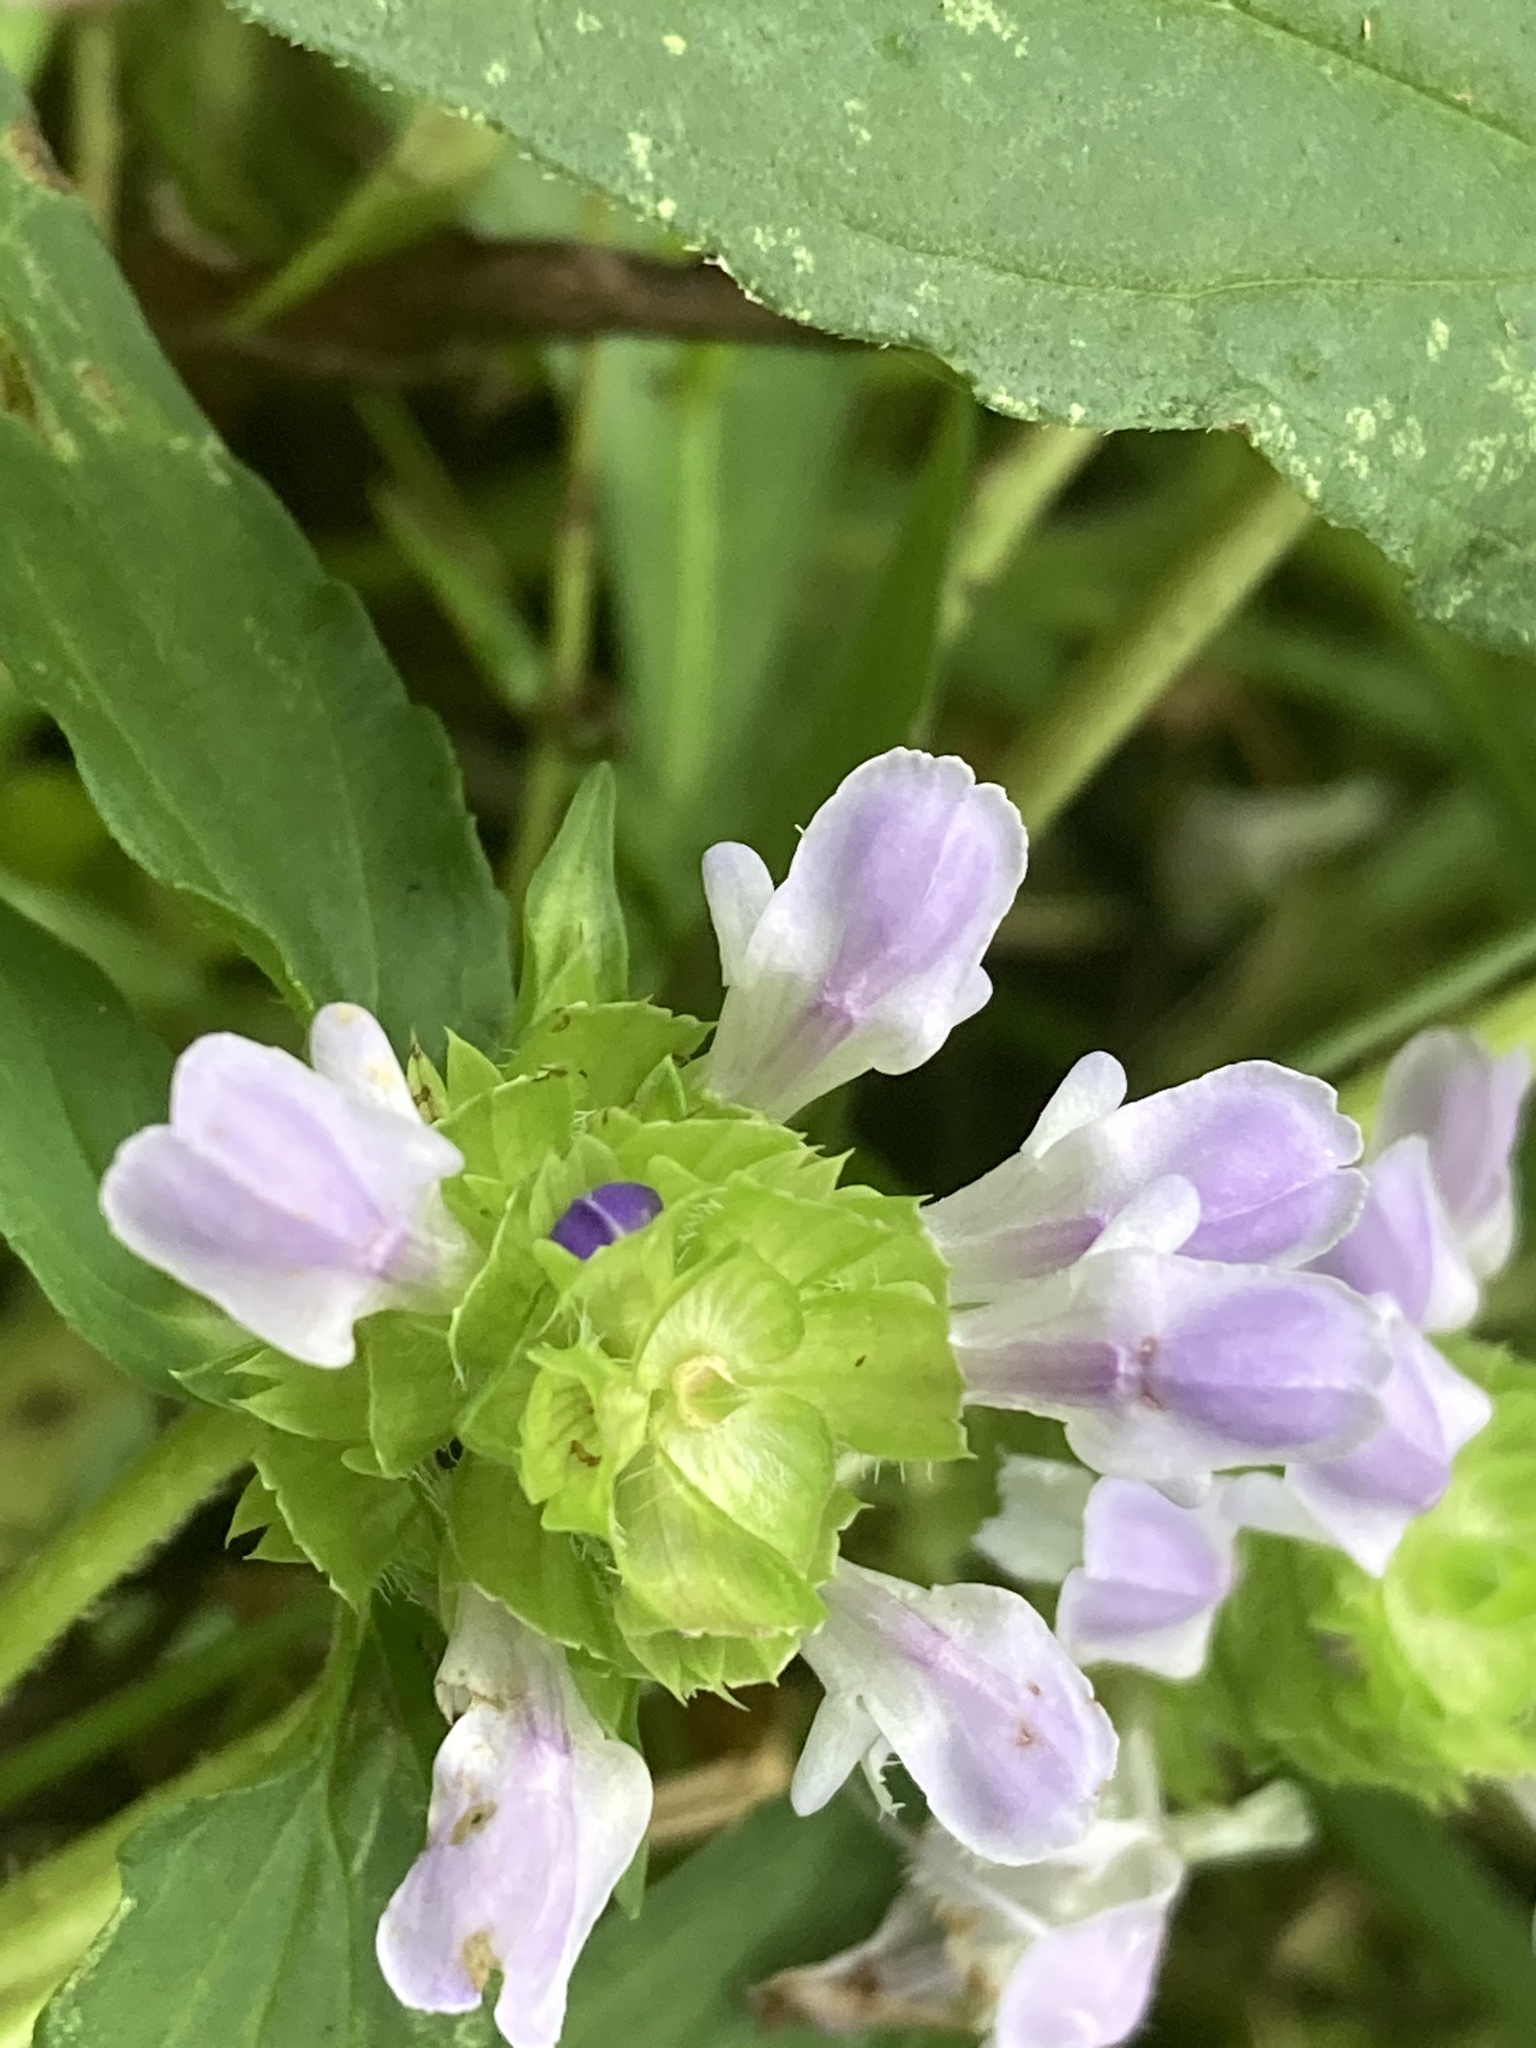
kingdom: Plantae
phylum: Tracheophyta
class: Magnoliopsida
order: Lamiales
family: Lamiaceae
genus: Prunella
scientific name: Prunella vulgaris
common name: Heal-all
